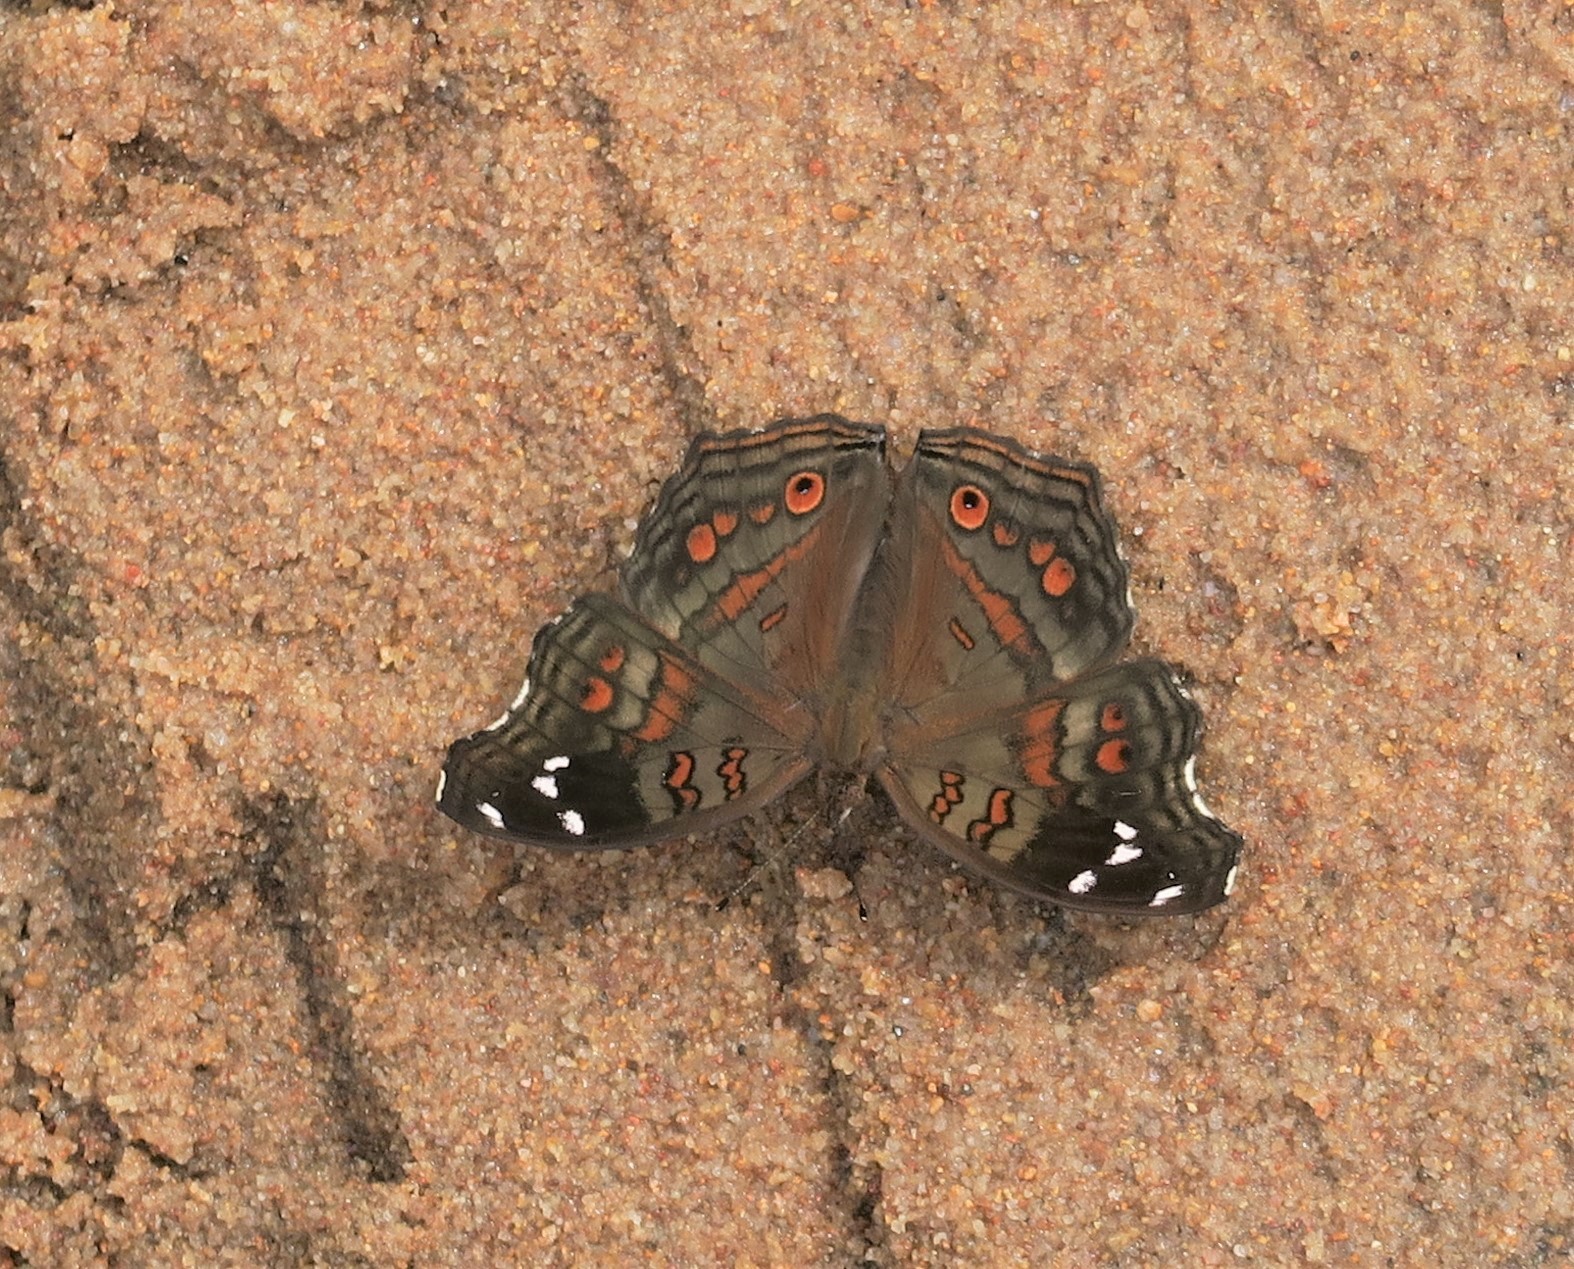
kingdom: Animalia
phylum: Arthropoda
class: Insecta
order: Lepidoptera
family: Nymphalidae
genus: Junonia
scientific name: Junonia natalica
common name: Brown pansy
